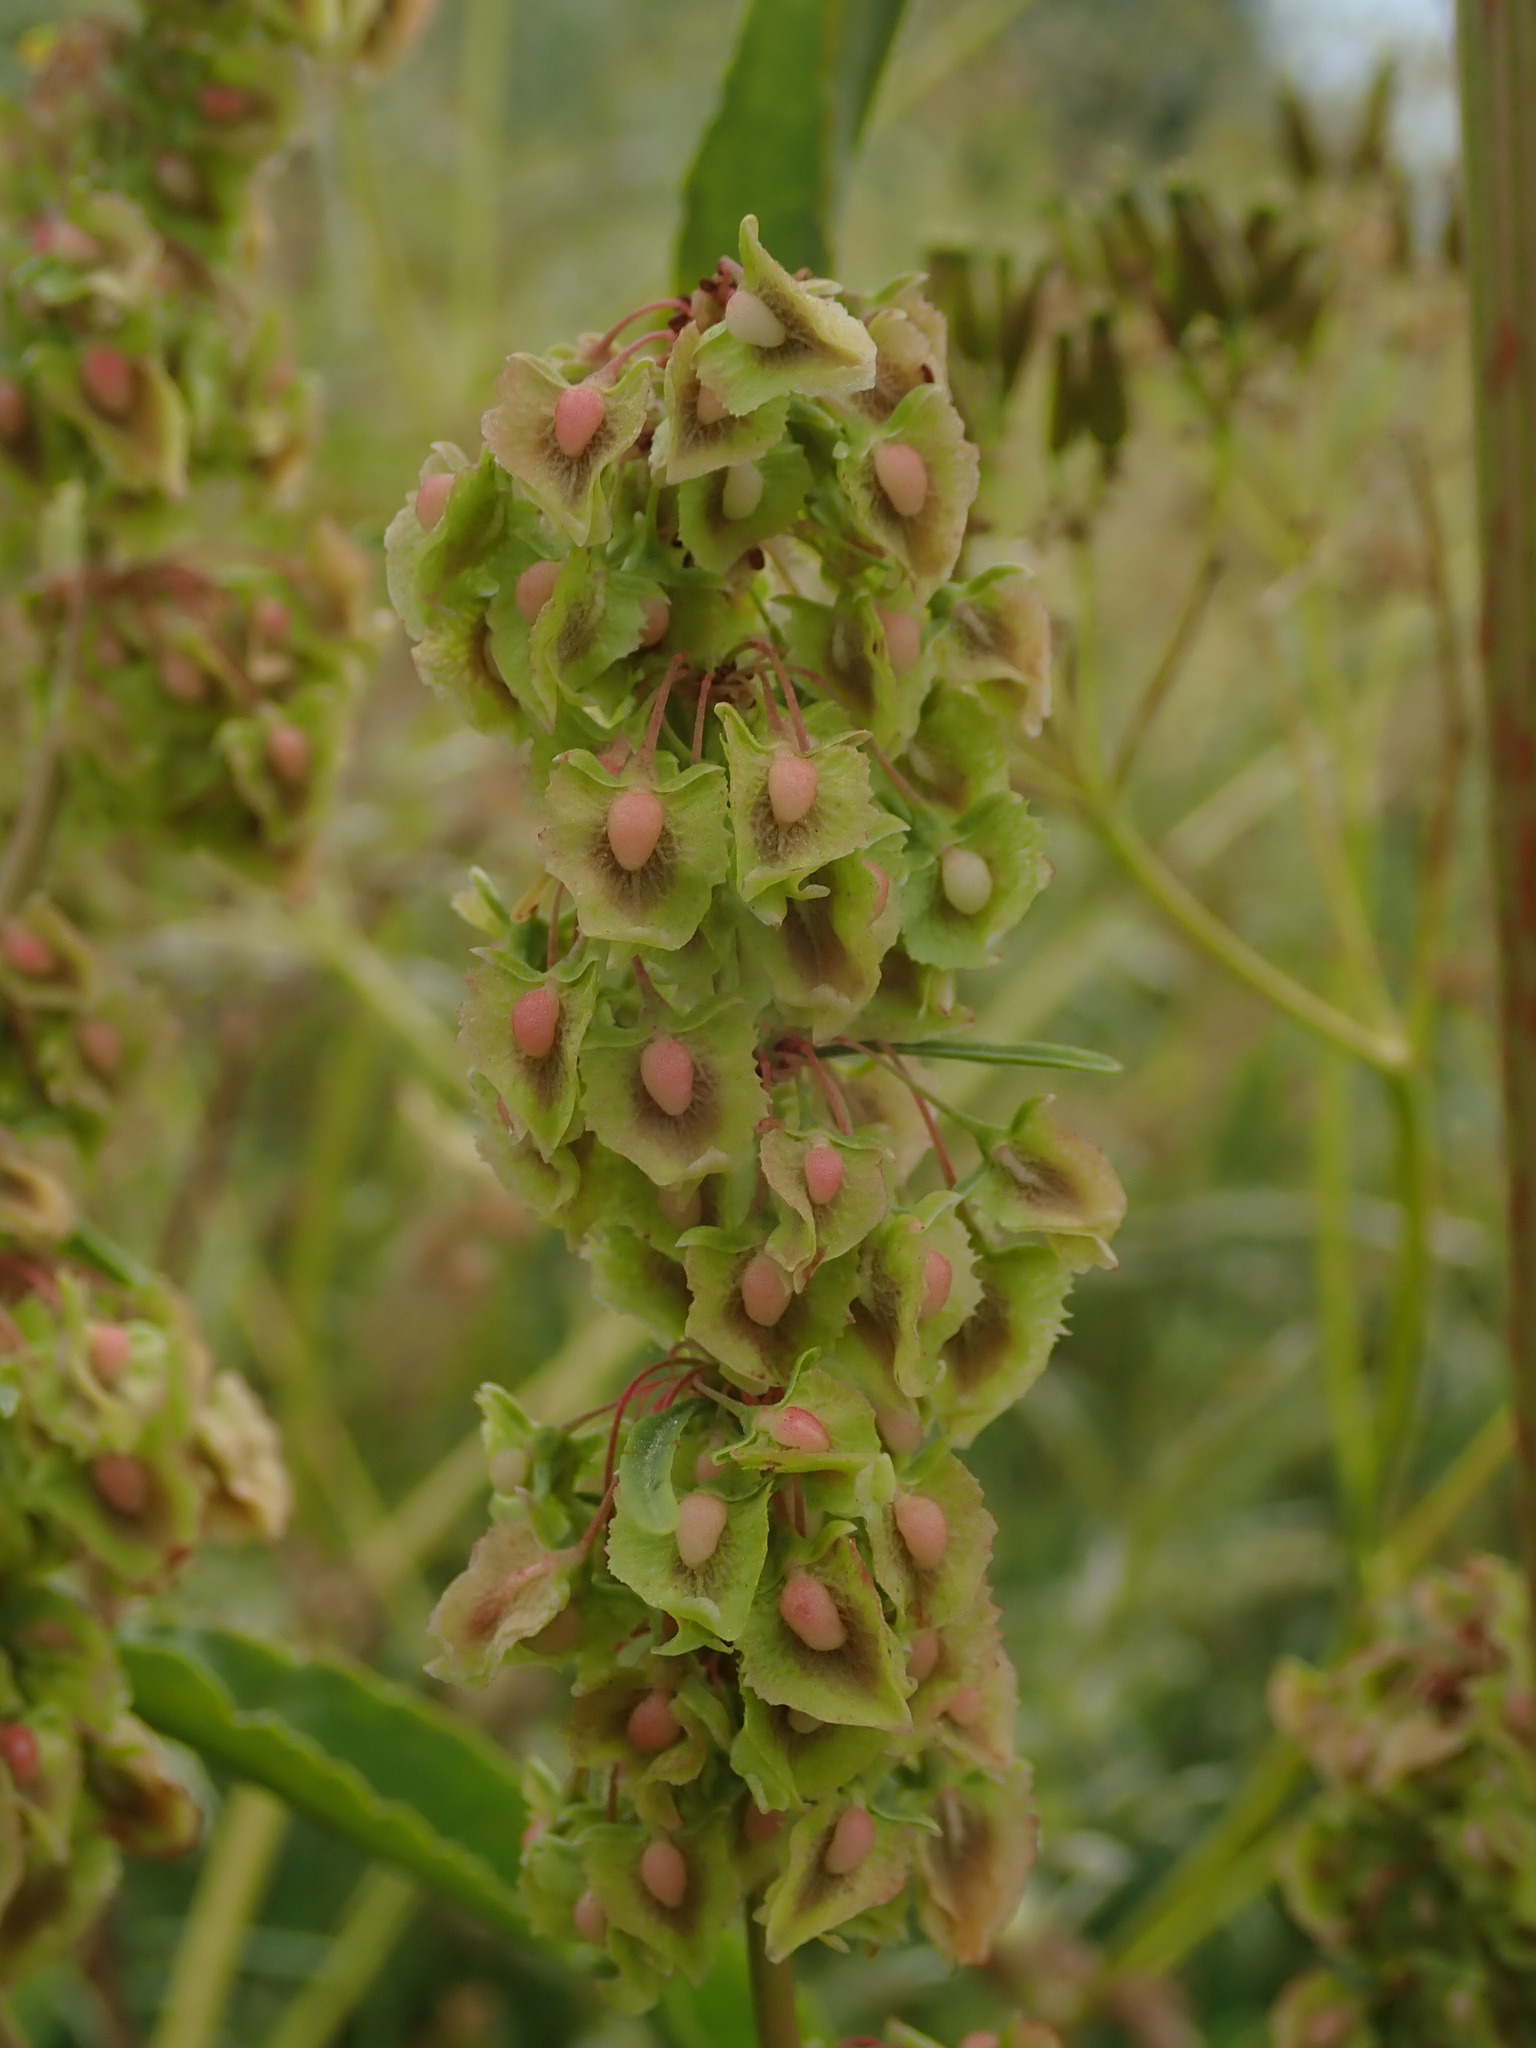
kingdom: Plantae
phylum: Tracheophyta
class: Magnoliopsida
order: Caryophyllales
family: Polygonaceae
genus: Rumex
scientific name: Rumex cristatus
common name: Greek dock
